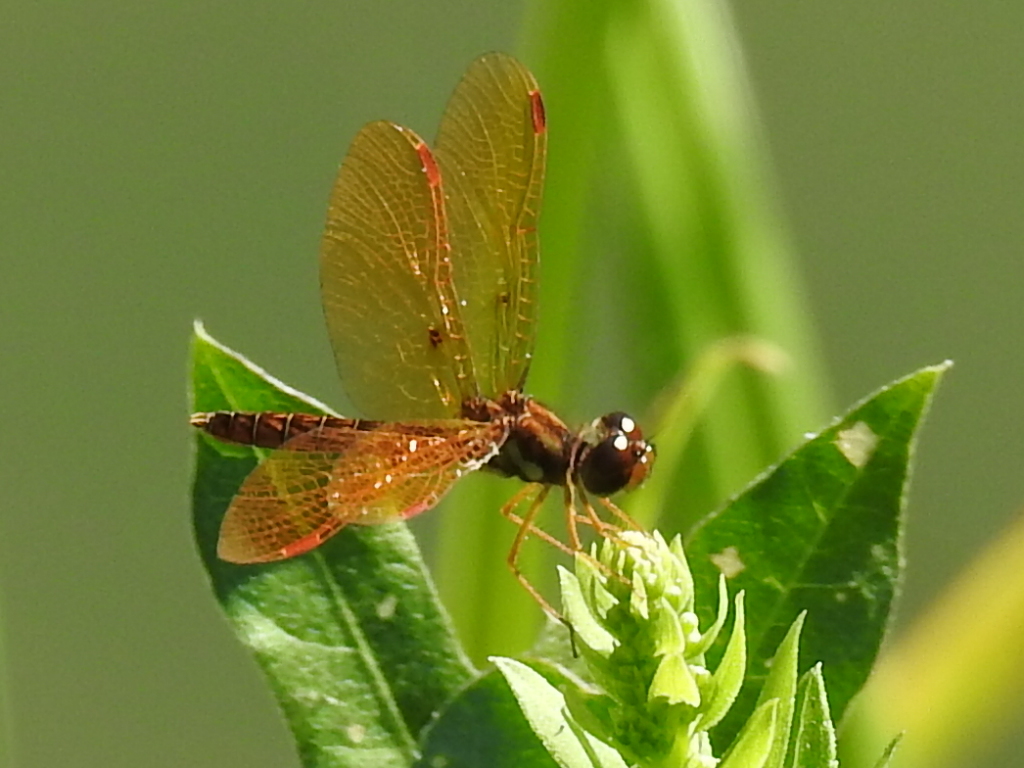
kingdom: Animalia
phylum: Arthropoda
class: Insecta
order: Odonata
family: Libellulidae
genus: Perithemis
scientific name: Perithemis tenera
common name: Eastern amberwing
